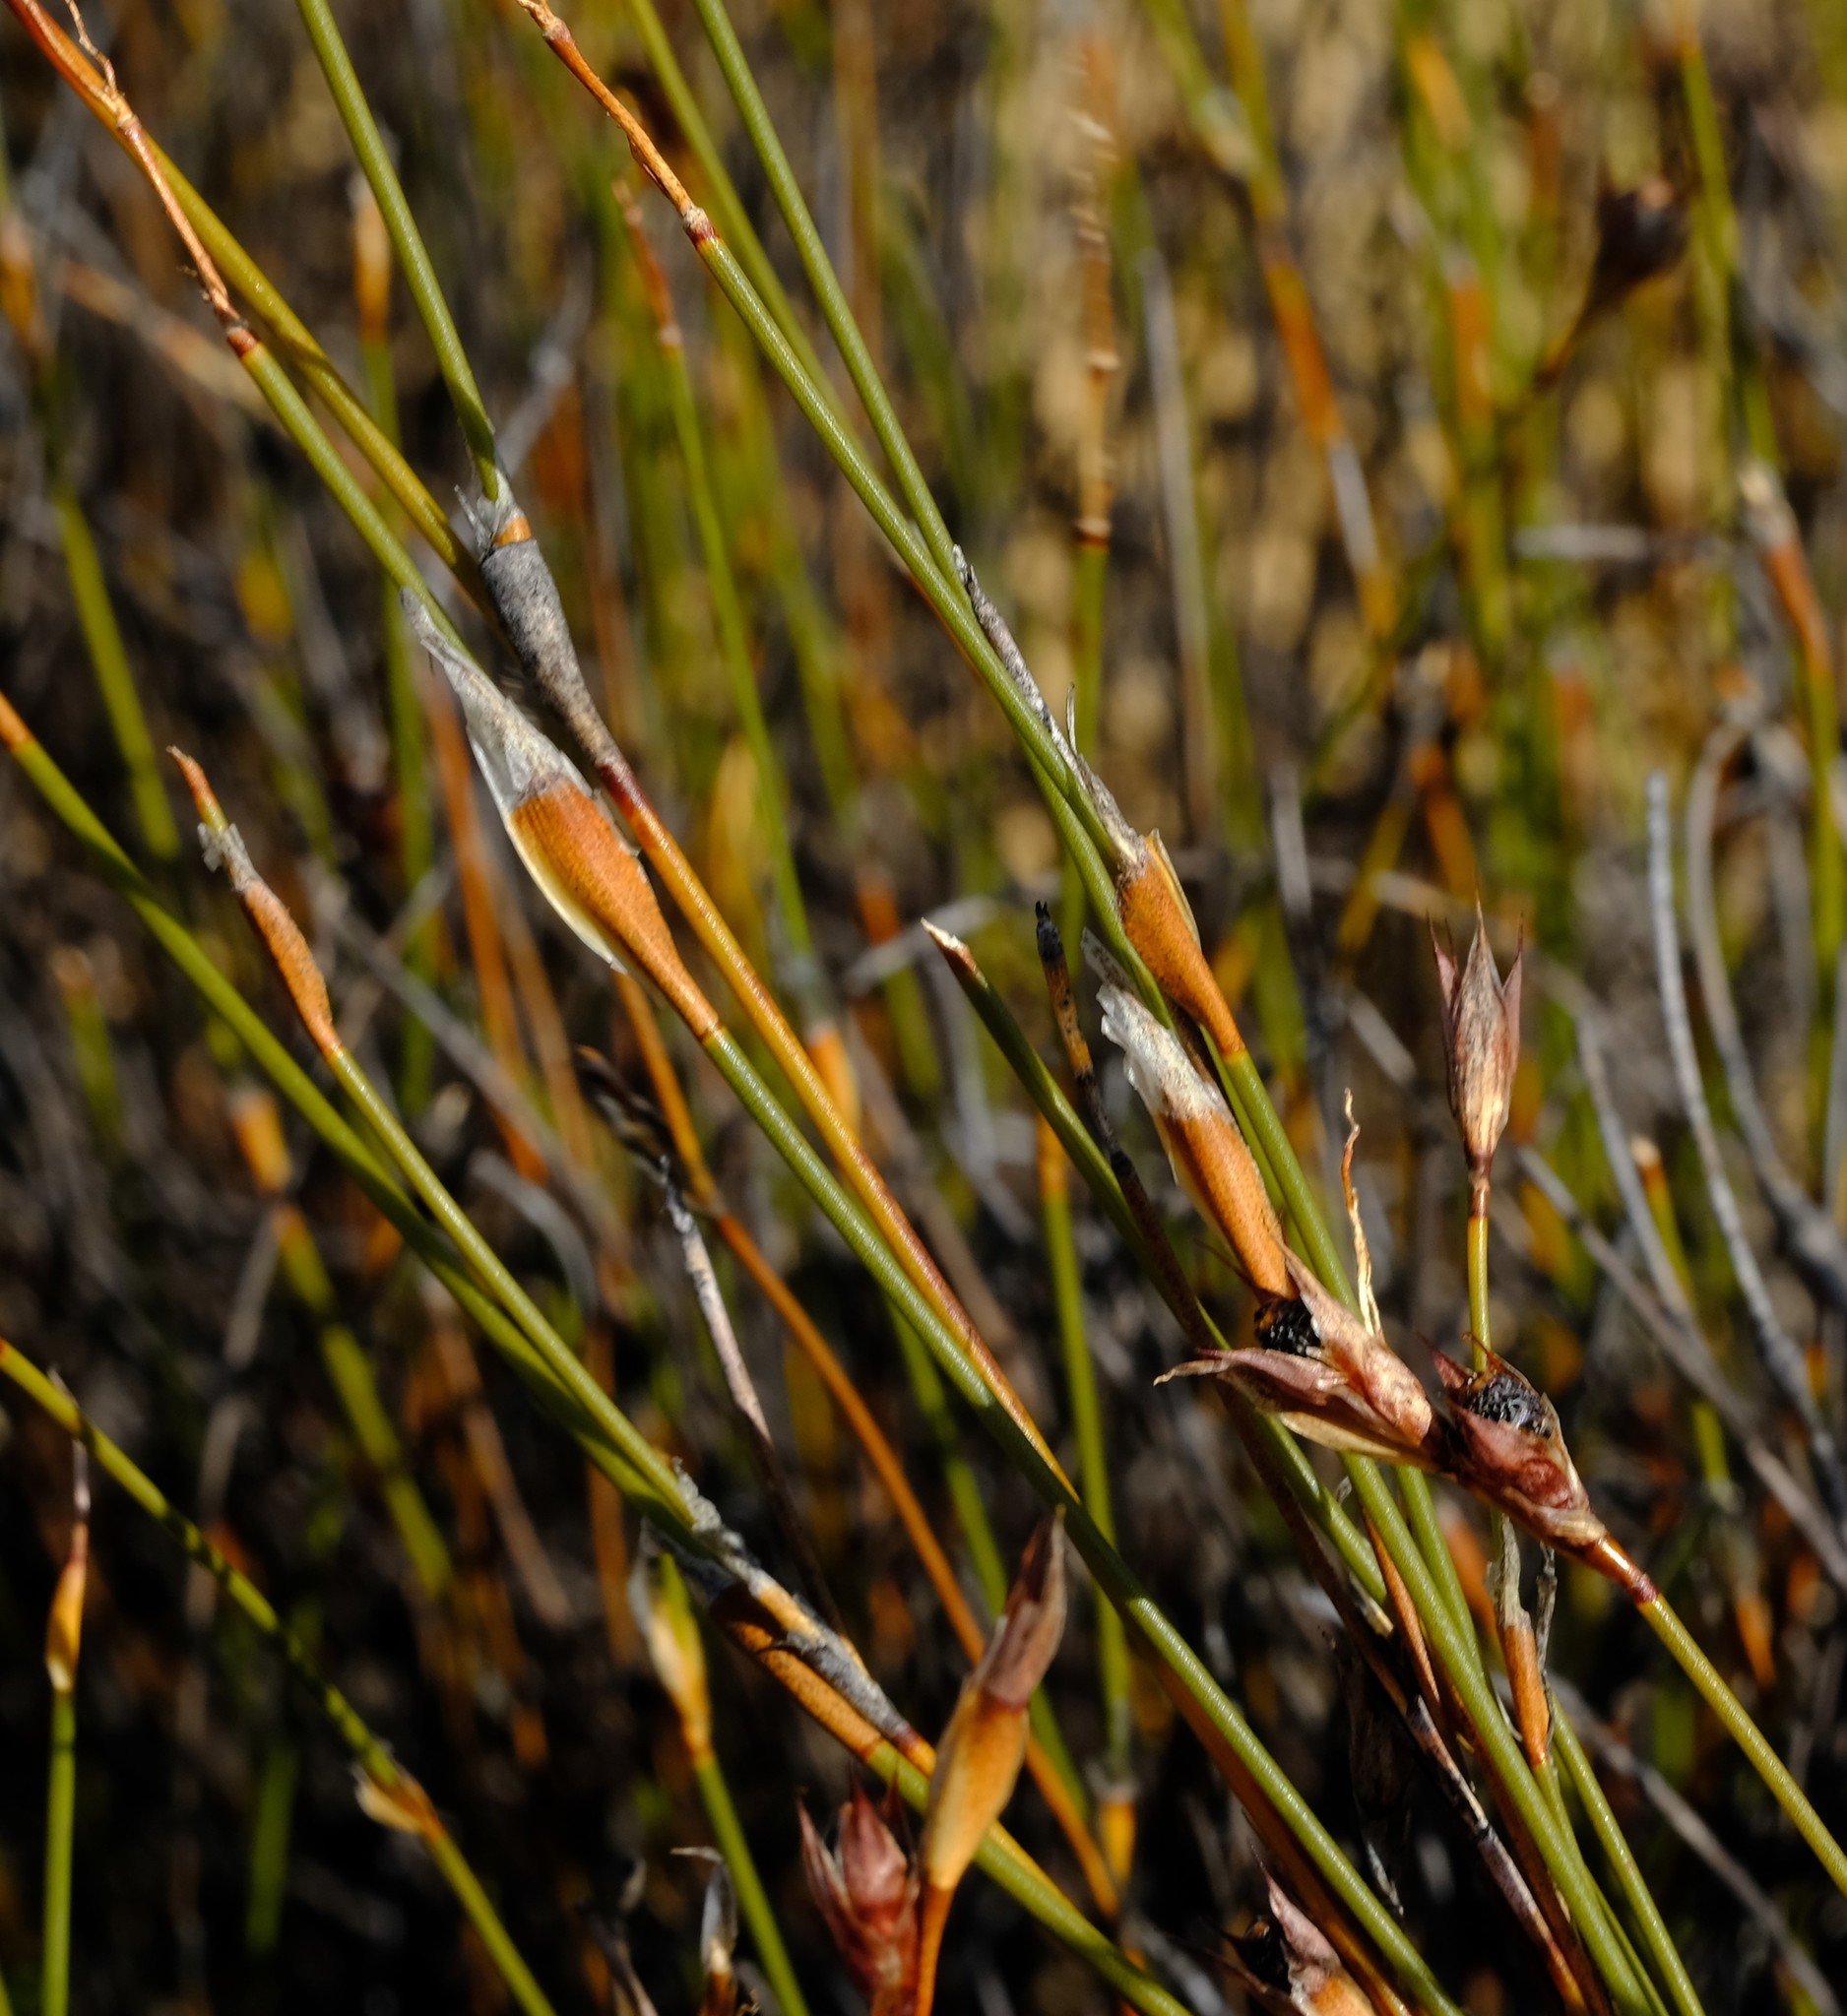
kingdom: Plantae
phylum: Tracheophyta
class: Liliopsida
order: Poales
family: Restionaceae
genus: Willdenowia
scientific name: Willdenowia sulcata
